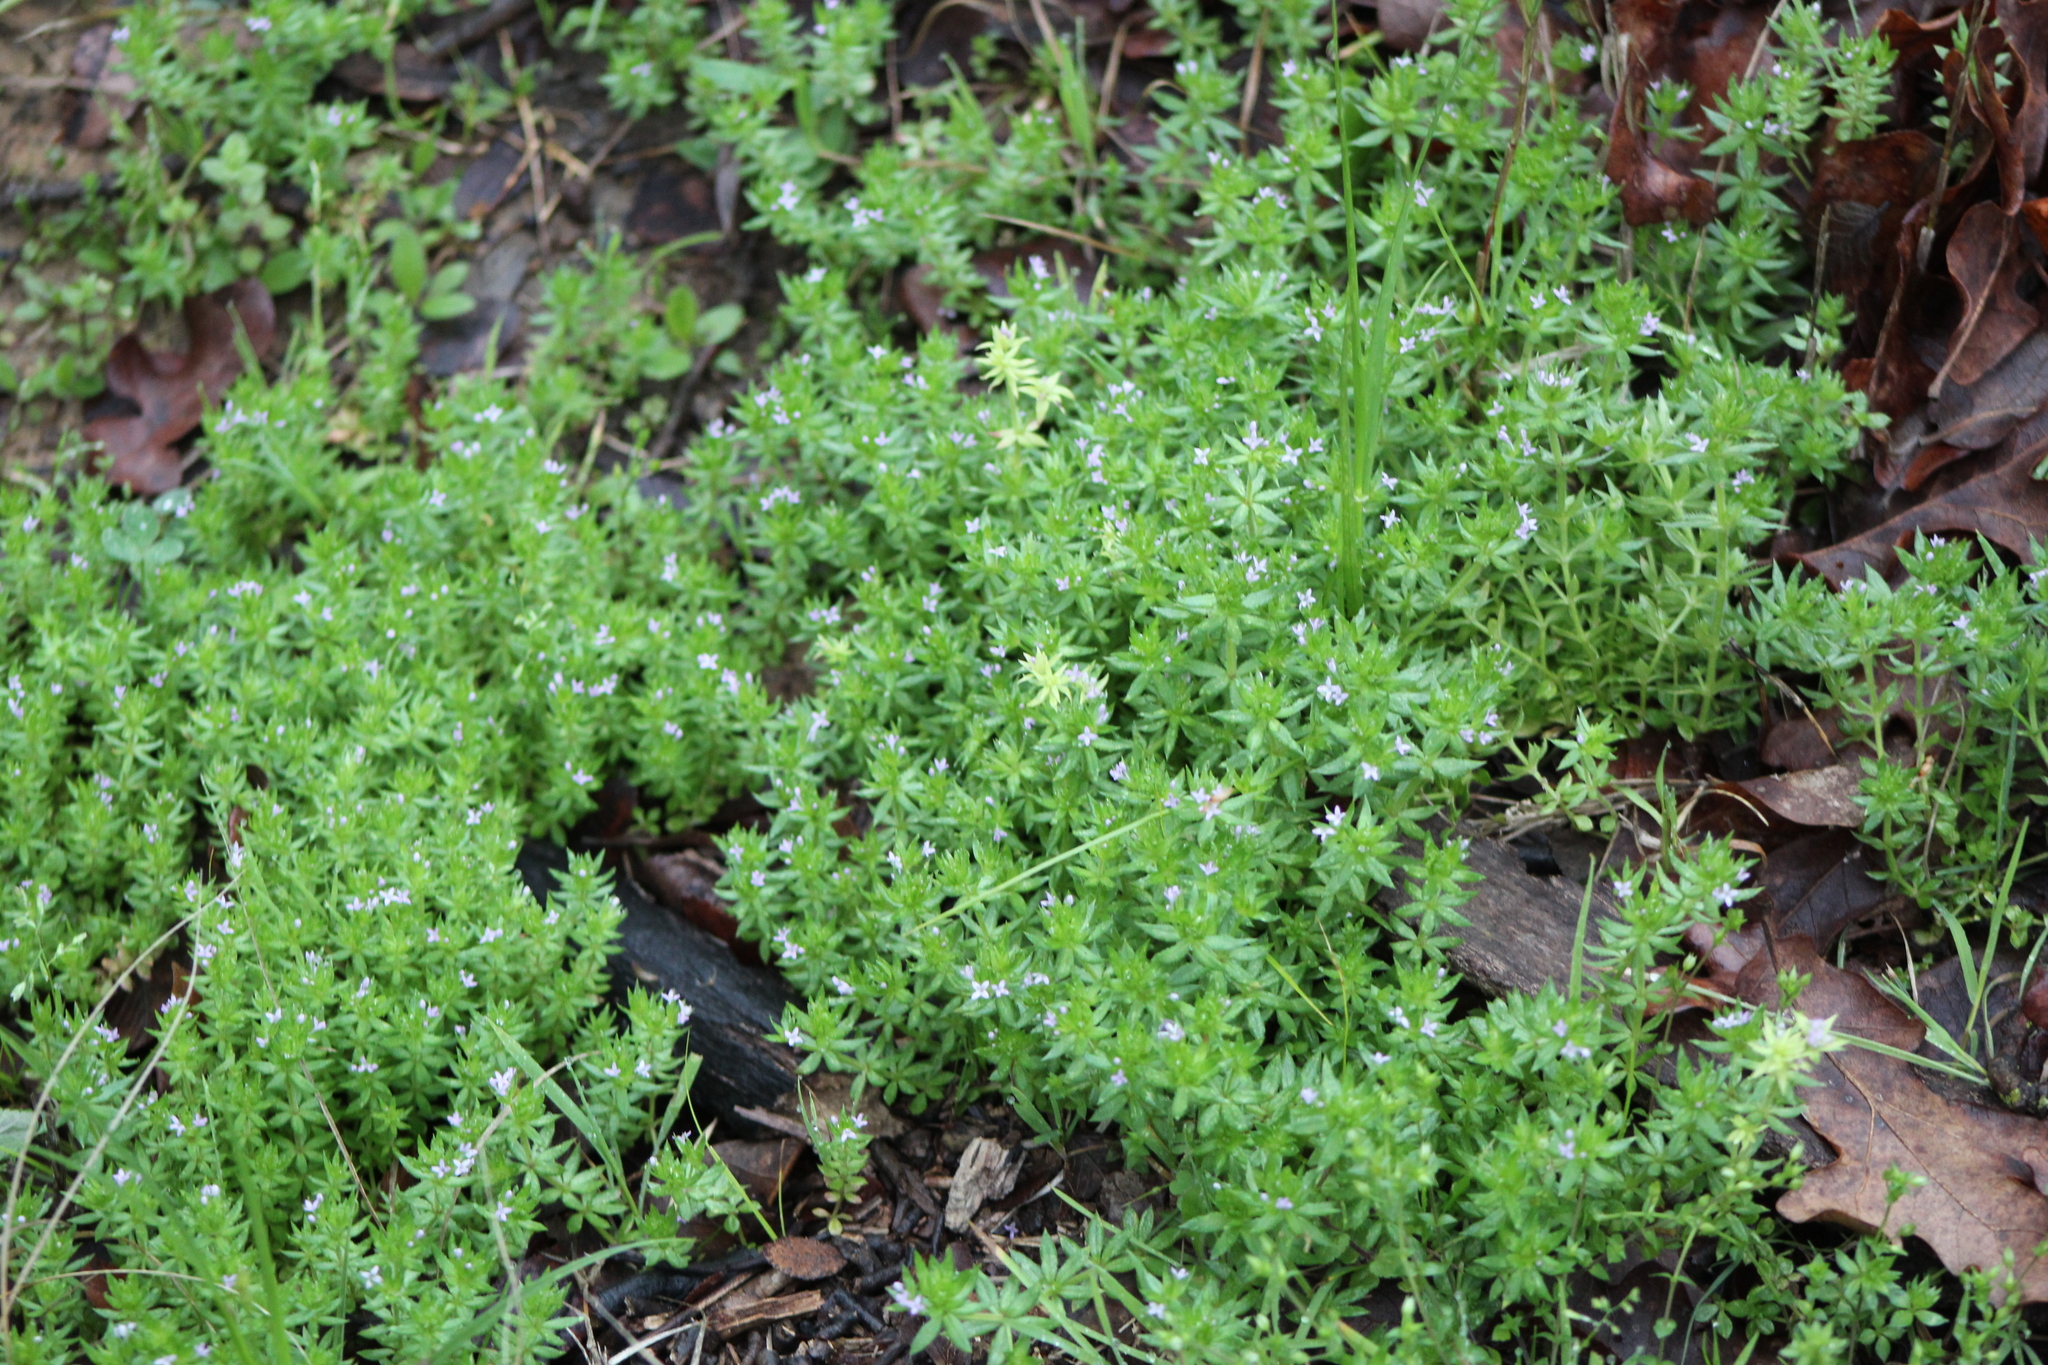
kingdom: Plantae
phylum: Tracheophyta
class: Magnoliopsida
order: Gentianales
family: Rubiaceae
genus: Sherardia
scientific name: Sherardia arvensis
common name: Field madder
